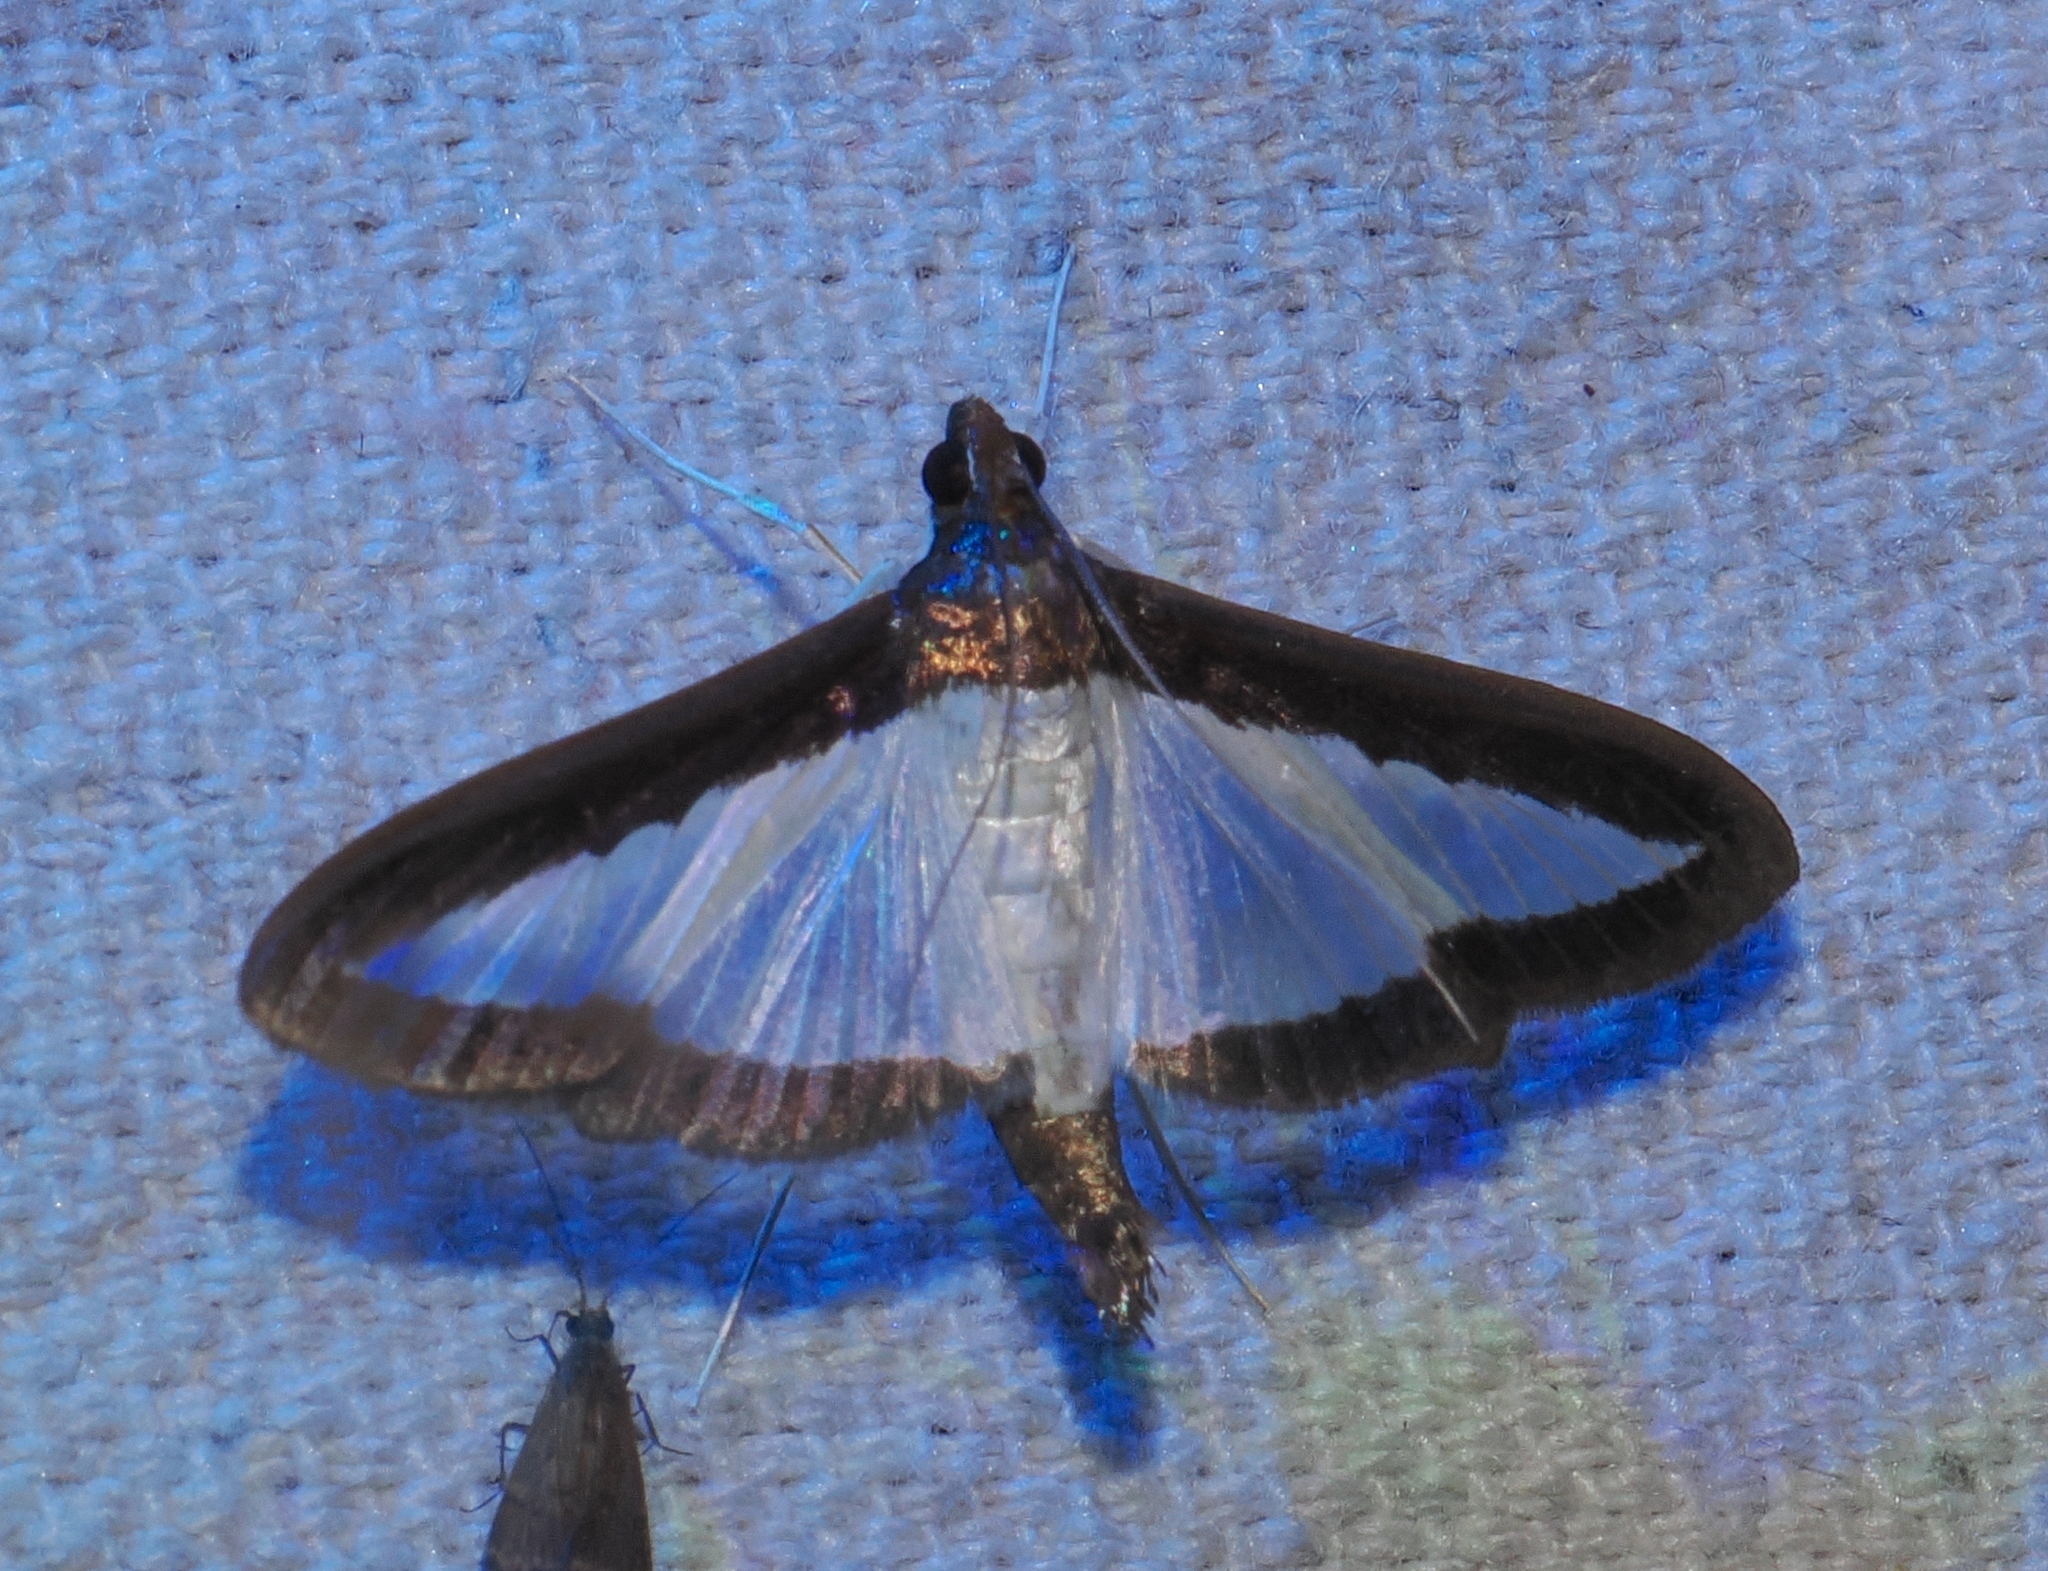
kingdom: Animalia
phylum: Arthropoda
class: Insecta
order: Lepidoptera
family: Crambidae
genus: Diaphania
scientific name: Diaphania hyalinata
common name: Melonworm
